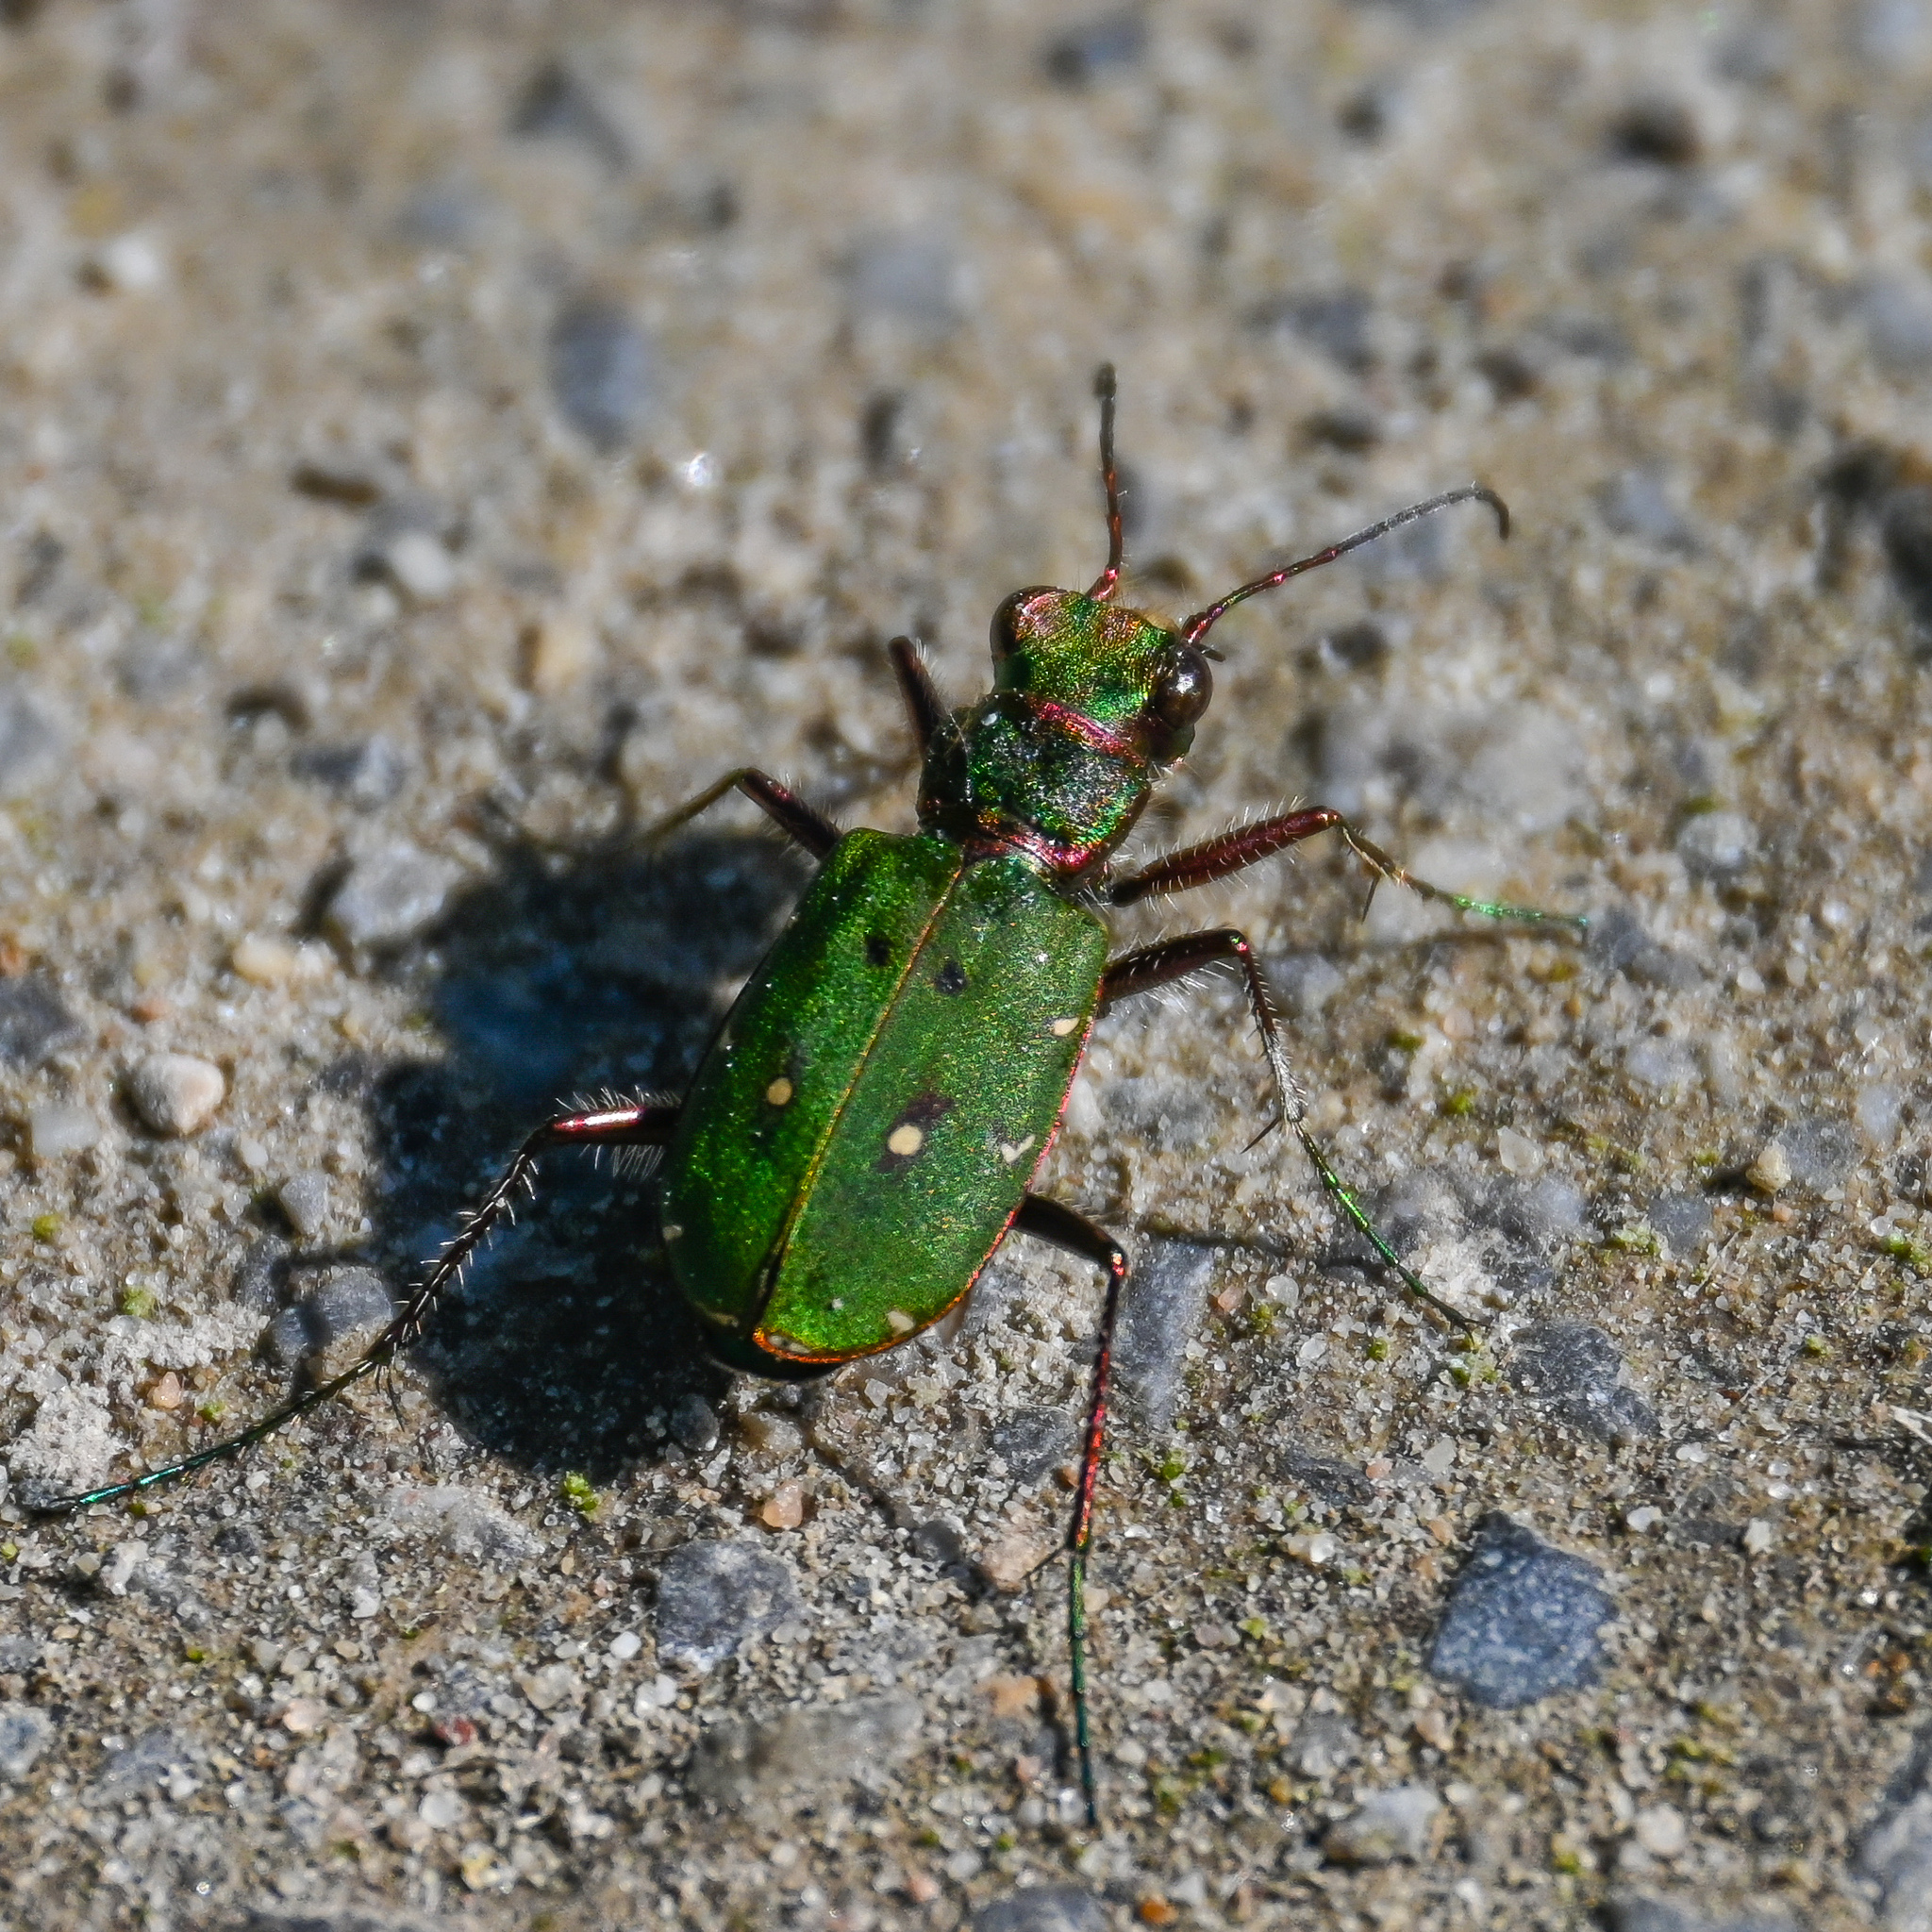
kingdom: Animalia
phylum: Arthropoda
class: Insecta
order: Coleoptera
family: Carabidae
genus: Cicindela
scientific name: Cicindela campestris
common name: Common tiger beetle
